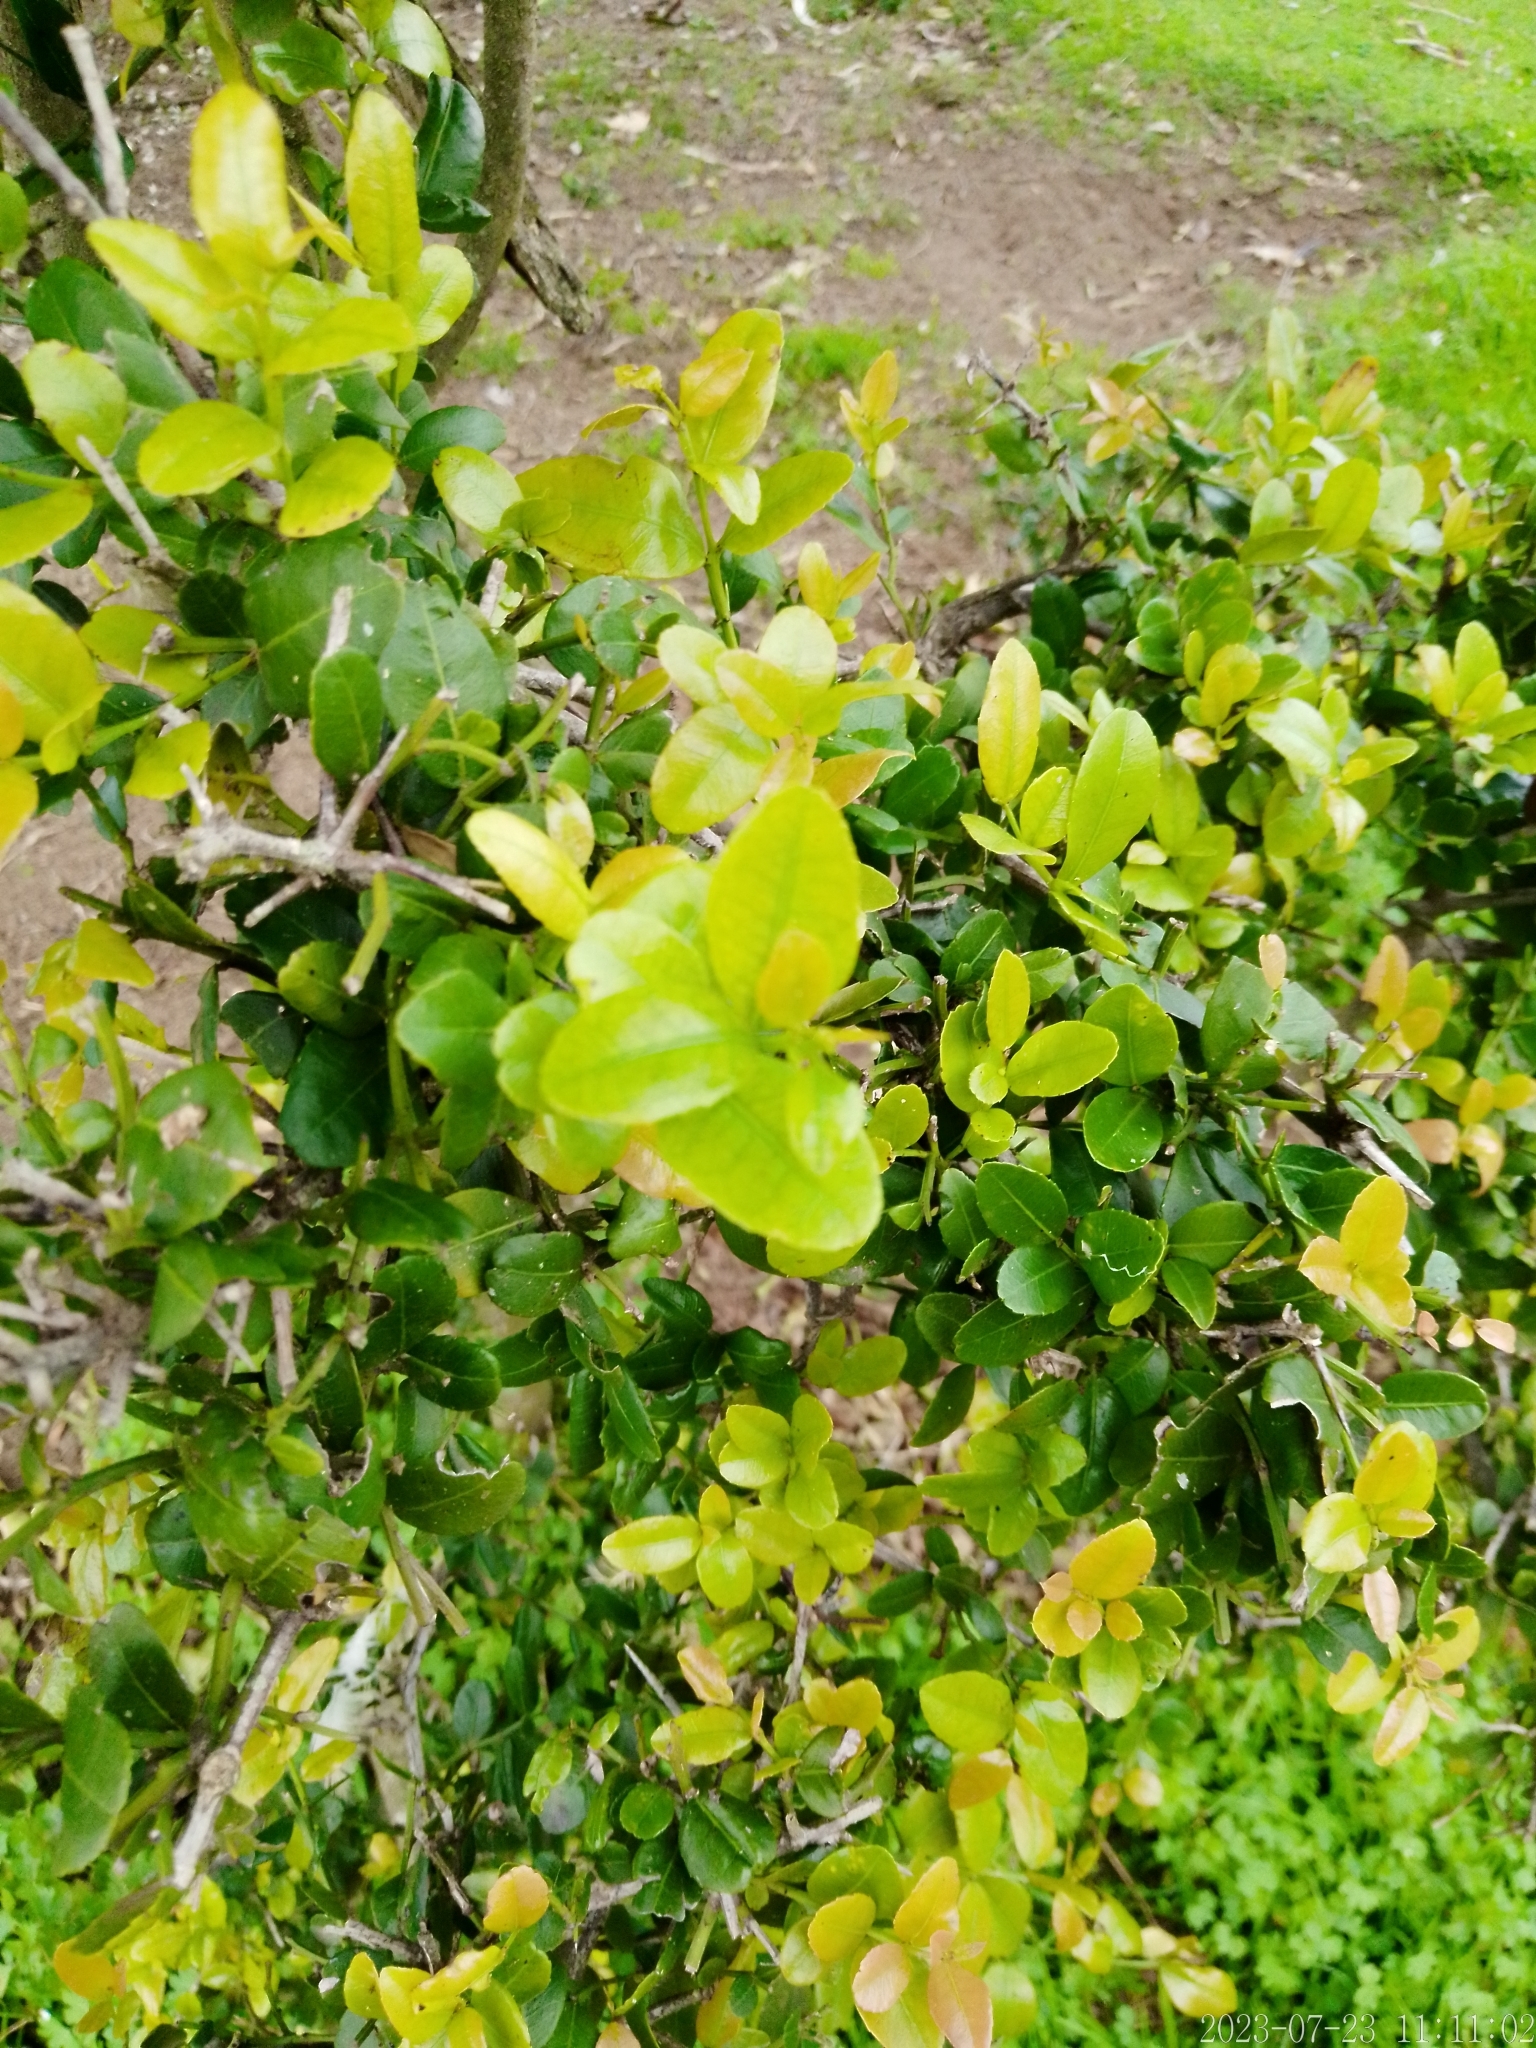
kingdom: Plantae
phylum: Tracheophyta
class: Magnoliopsida
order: Rosales
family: Rhamnaceae
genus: Scutia
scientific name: Scutia buxifolia
